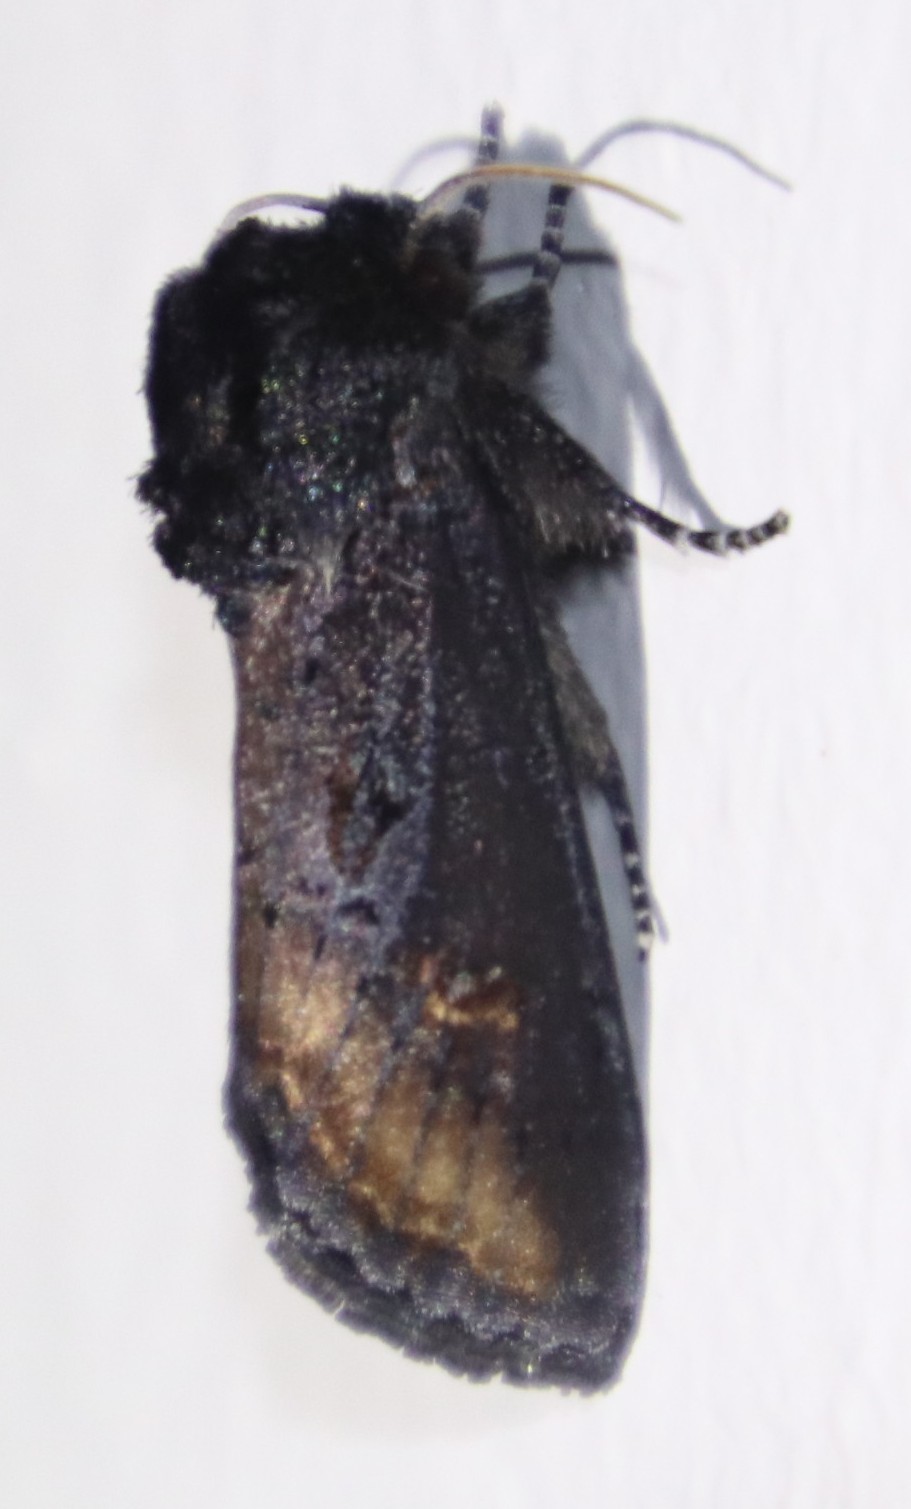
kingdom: Animalia
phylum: Arthropoda
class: Insecta
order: Lepidoptera
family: Noctuidae
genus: Brithys
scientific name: Brithys crini
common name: Kew arches
